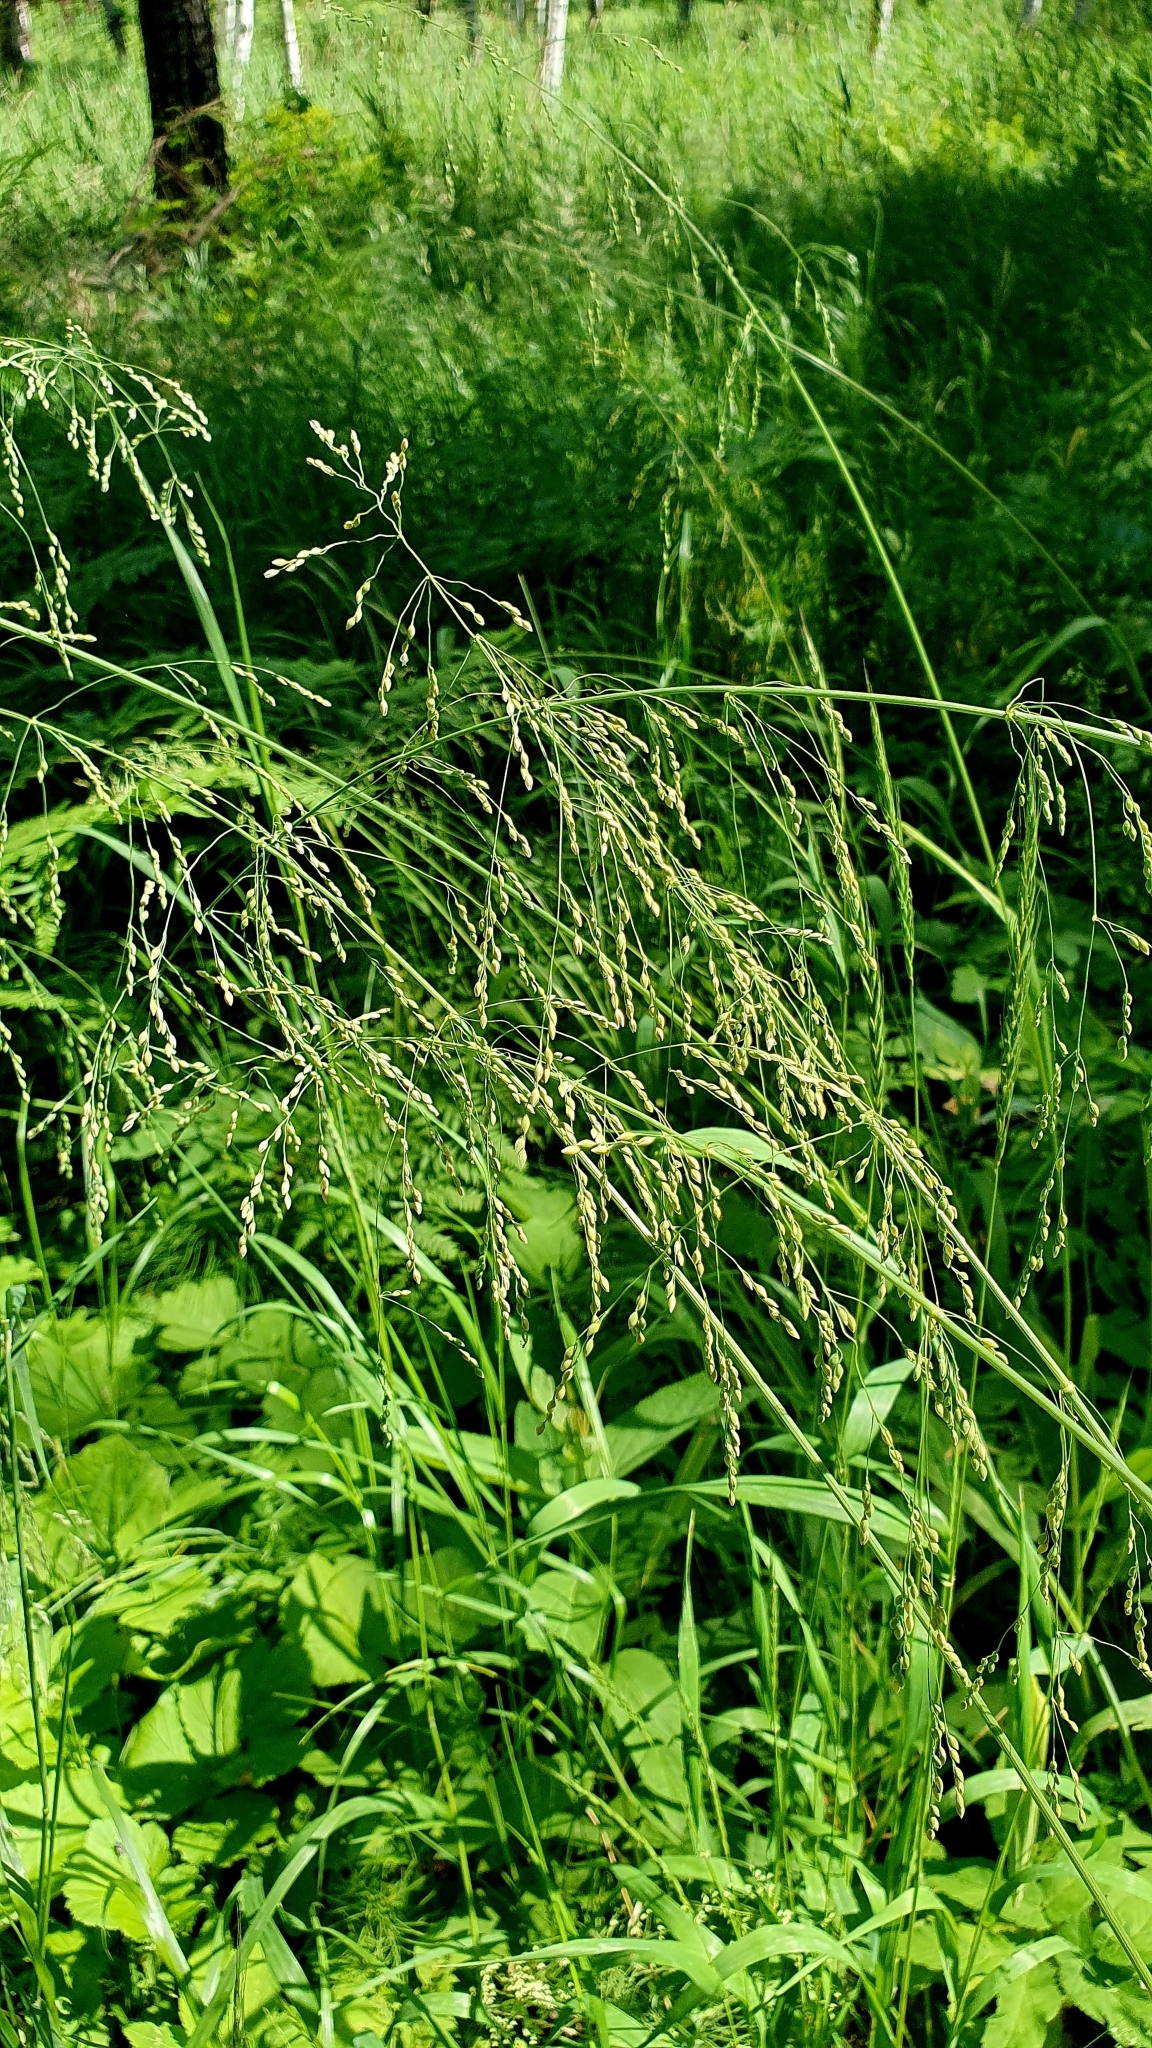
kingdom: Plantae
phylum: Tracheophyta
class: Liliopsida
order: Poales
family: Poaceae
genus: Milium
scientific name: Milium effusum
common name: Wood millet
